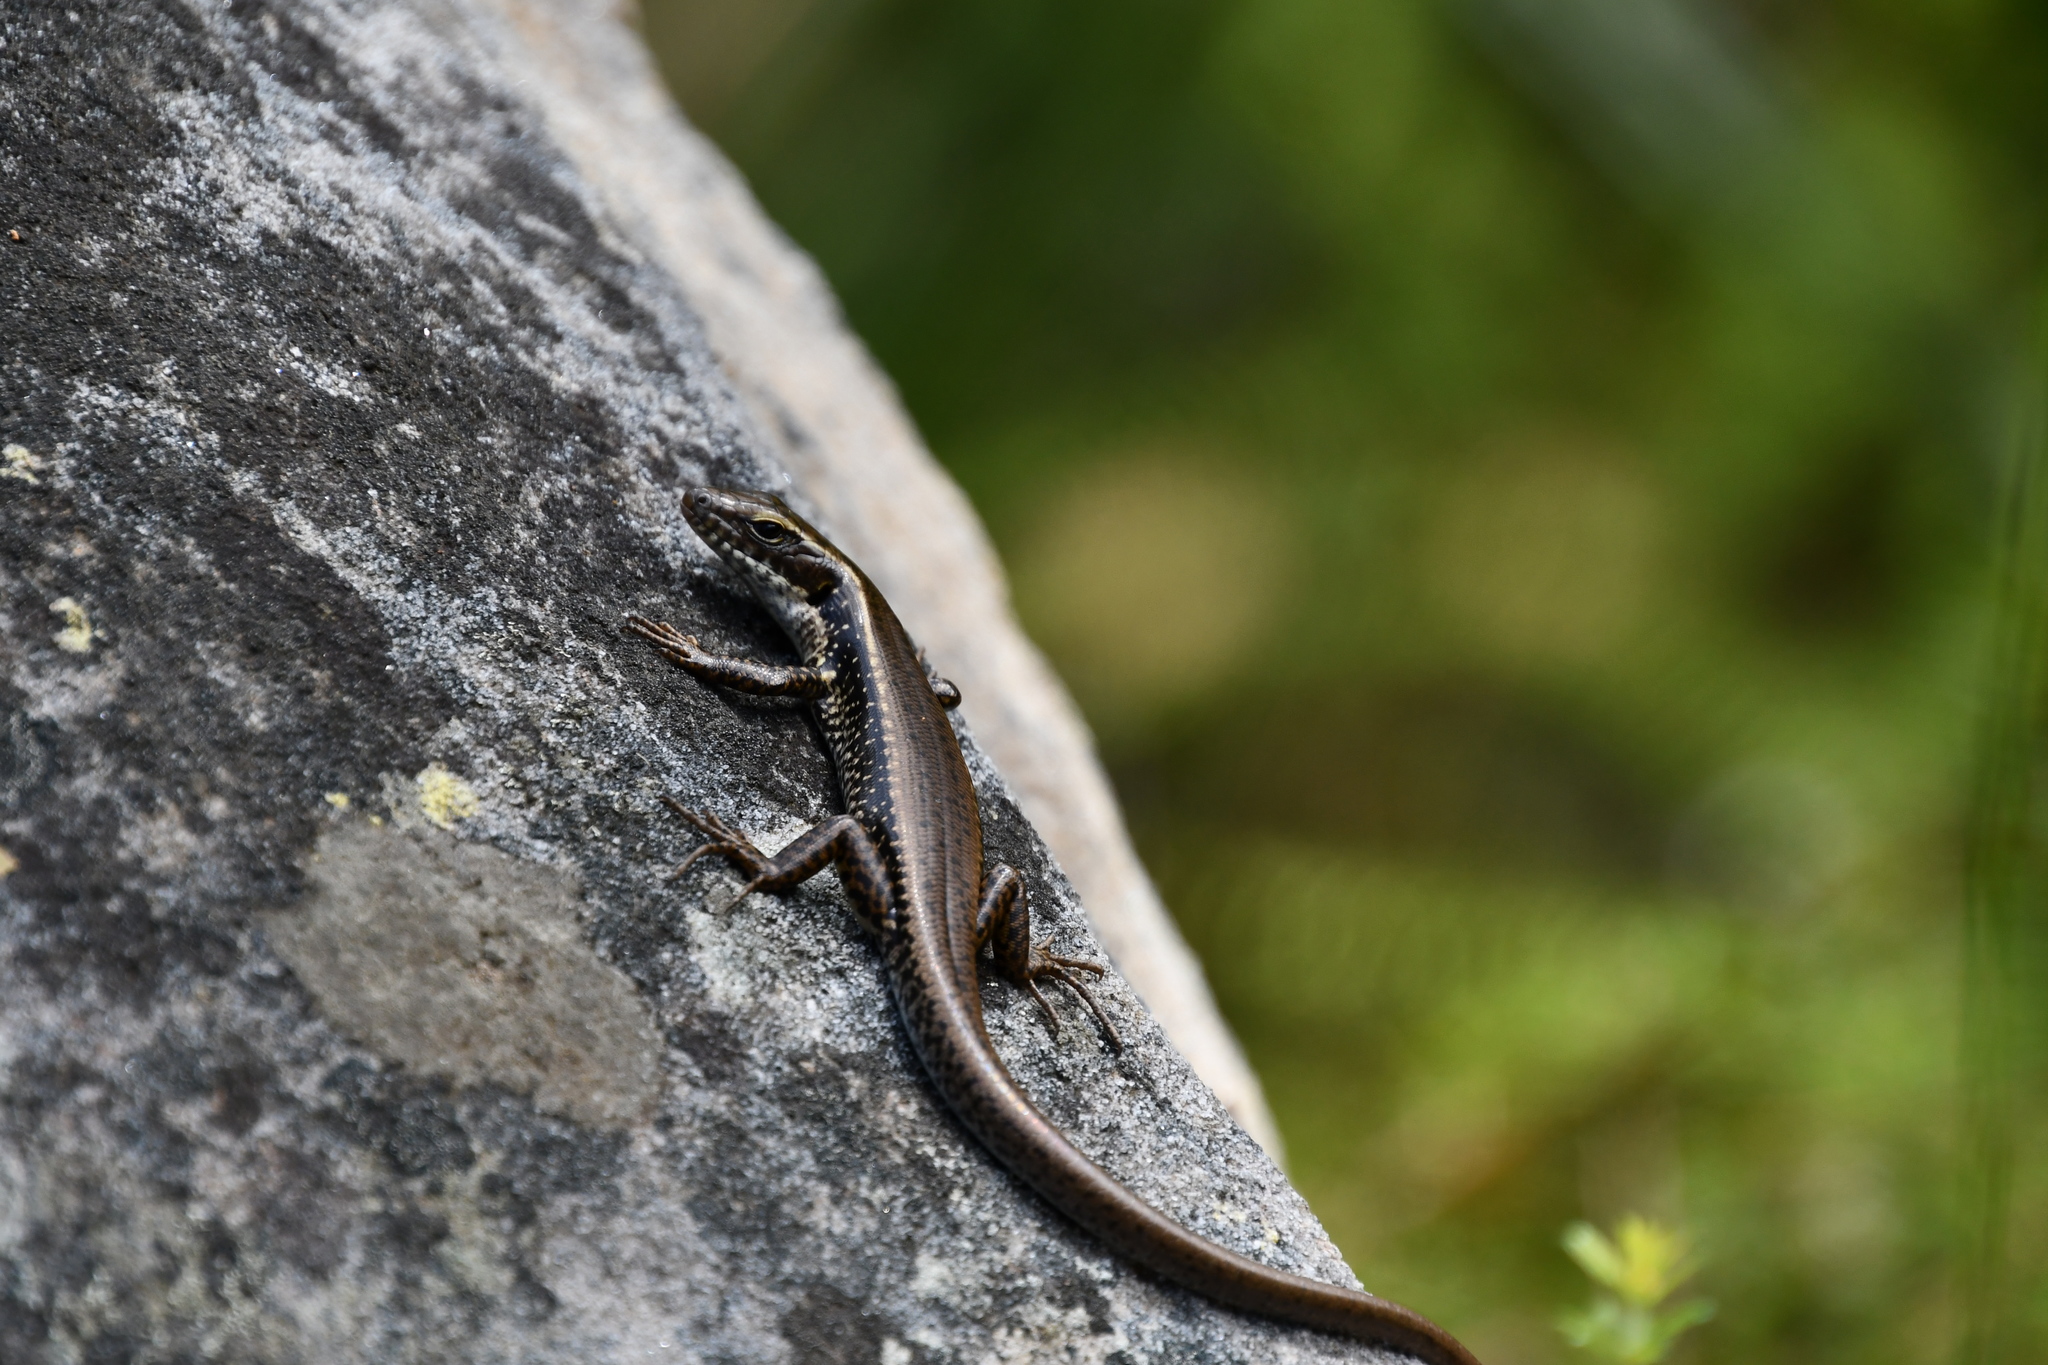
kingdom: Animalia
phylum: Chordata
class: Squamata
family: Scincidae
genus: Eulamprus
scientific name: Eulamprus quoyii
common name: Eastern water skink
